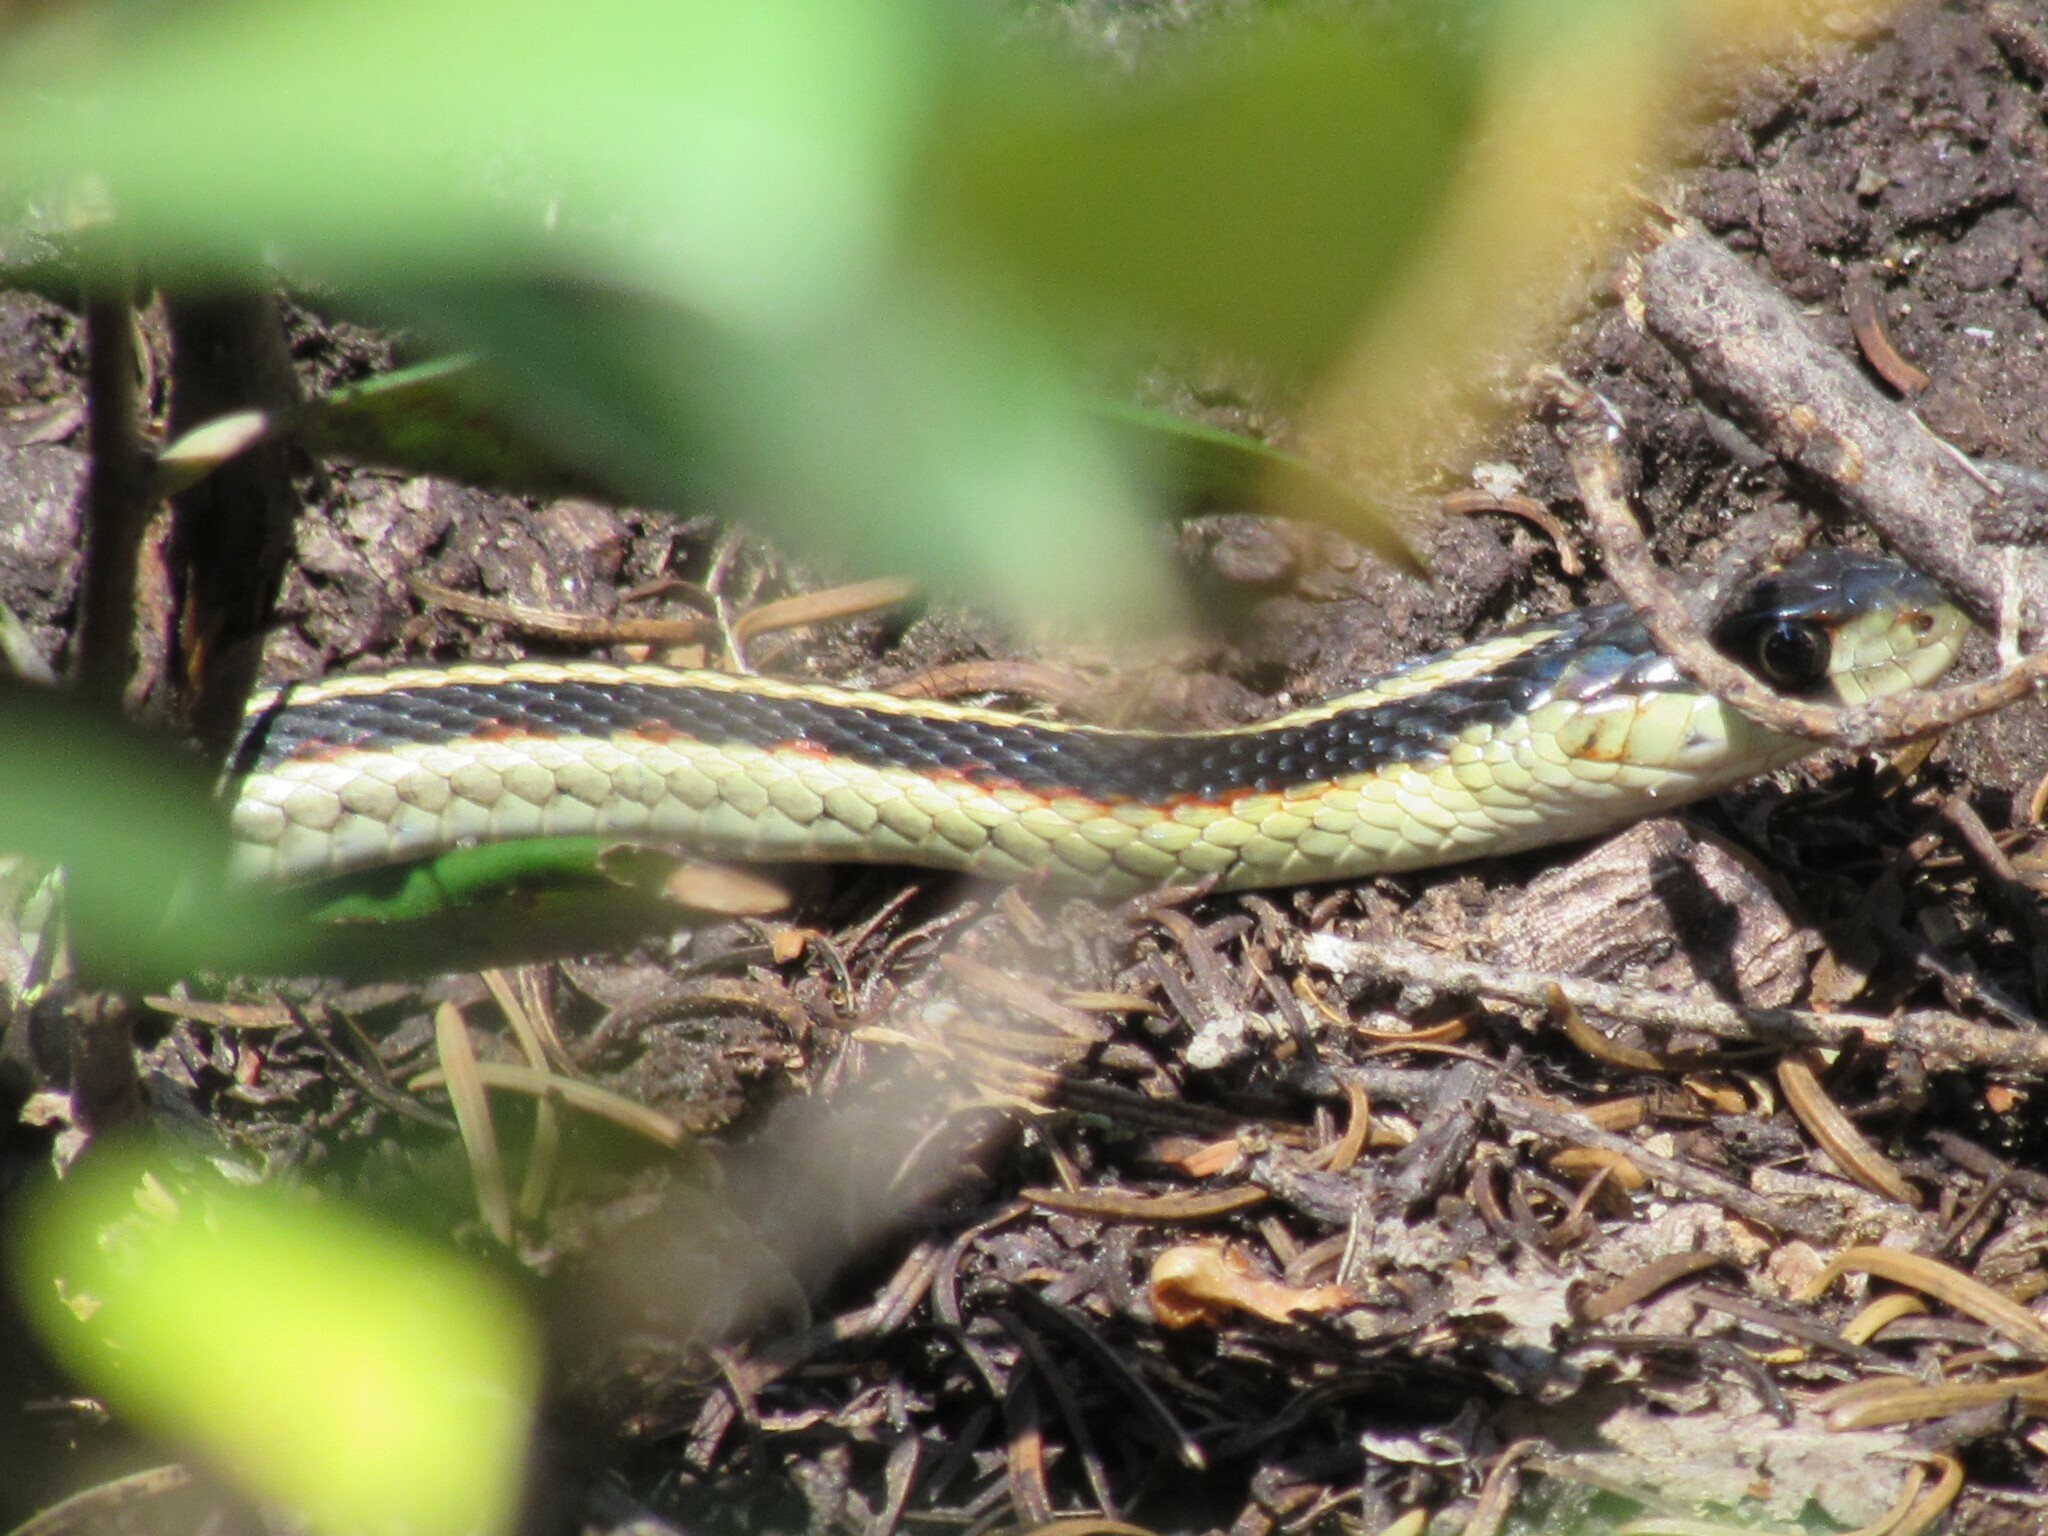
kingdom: Animalia
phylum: Chordata
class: Squamata
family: Colubridae
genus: Thamnophis
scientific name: Thamnophis sirtalis
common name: Common garter snake
